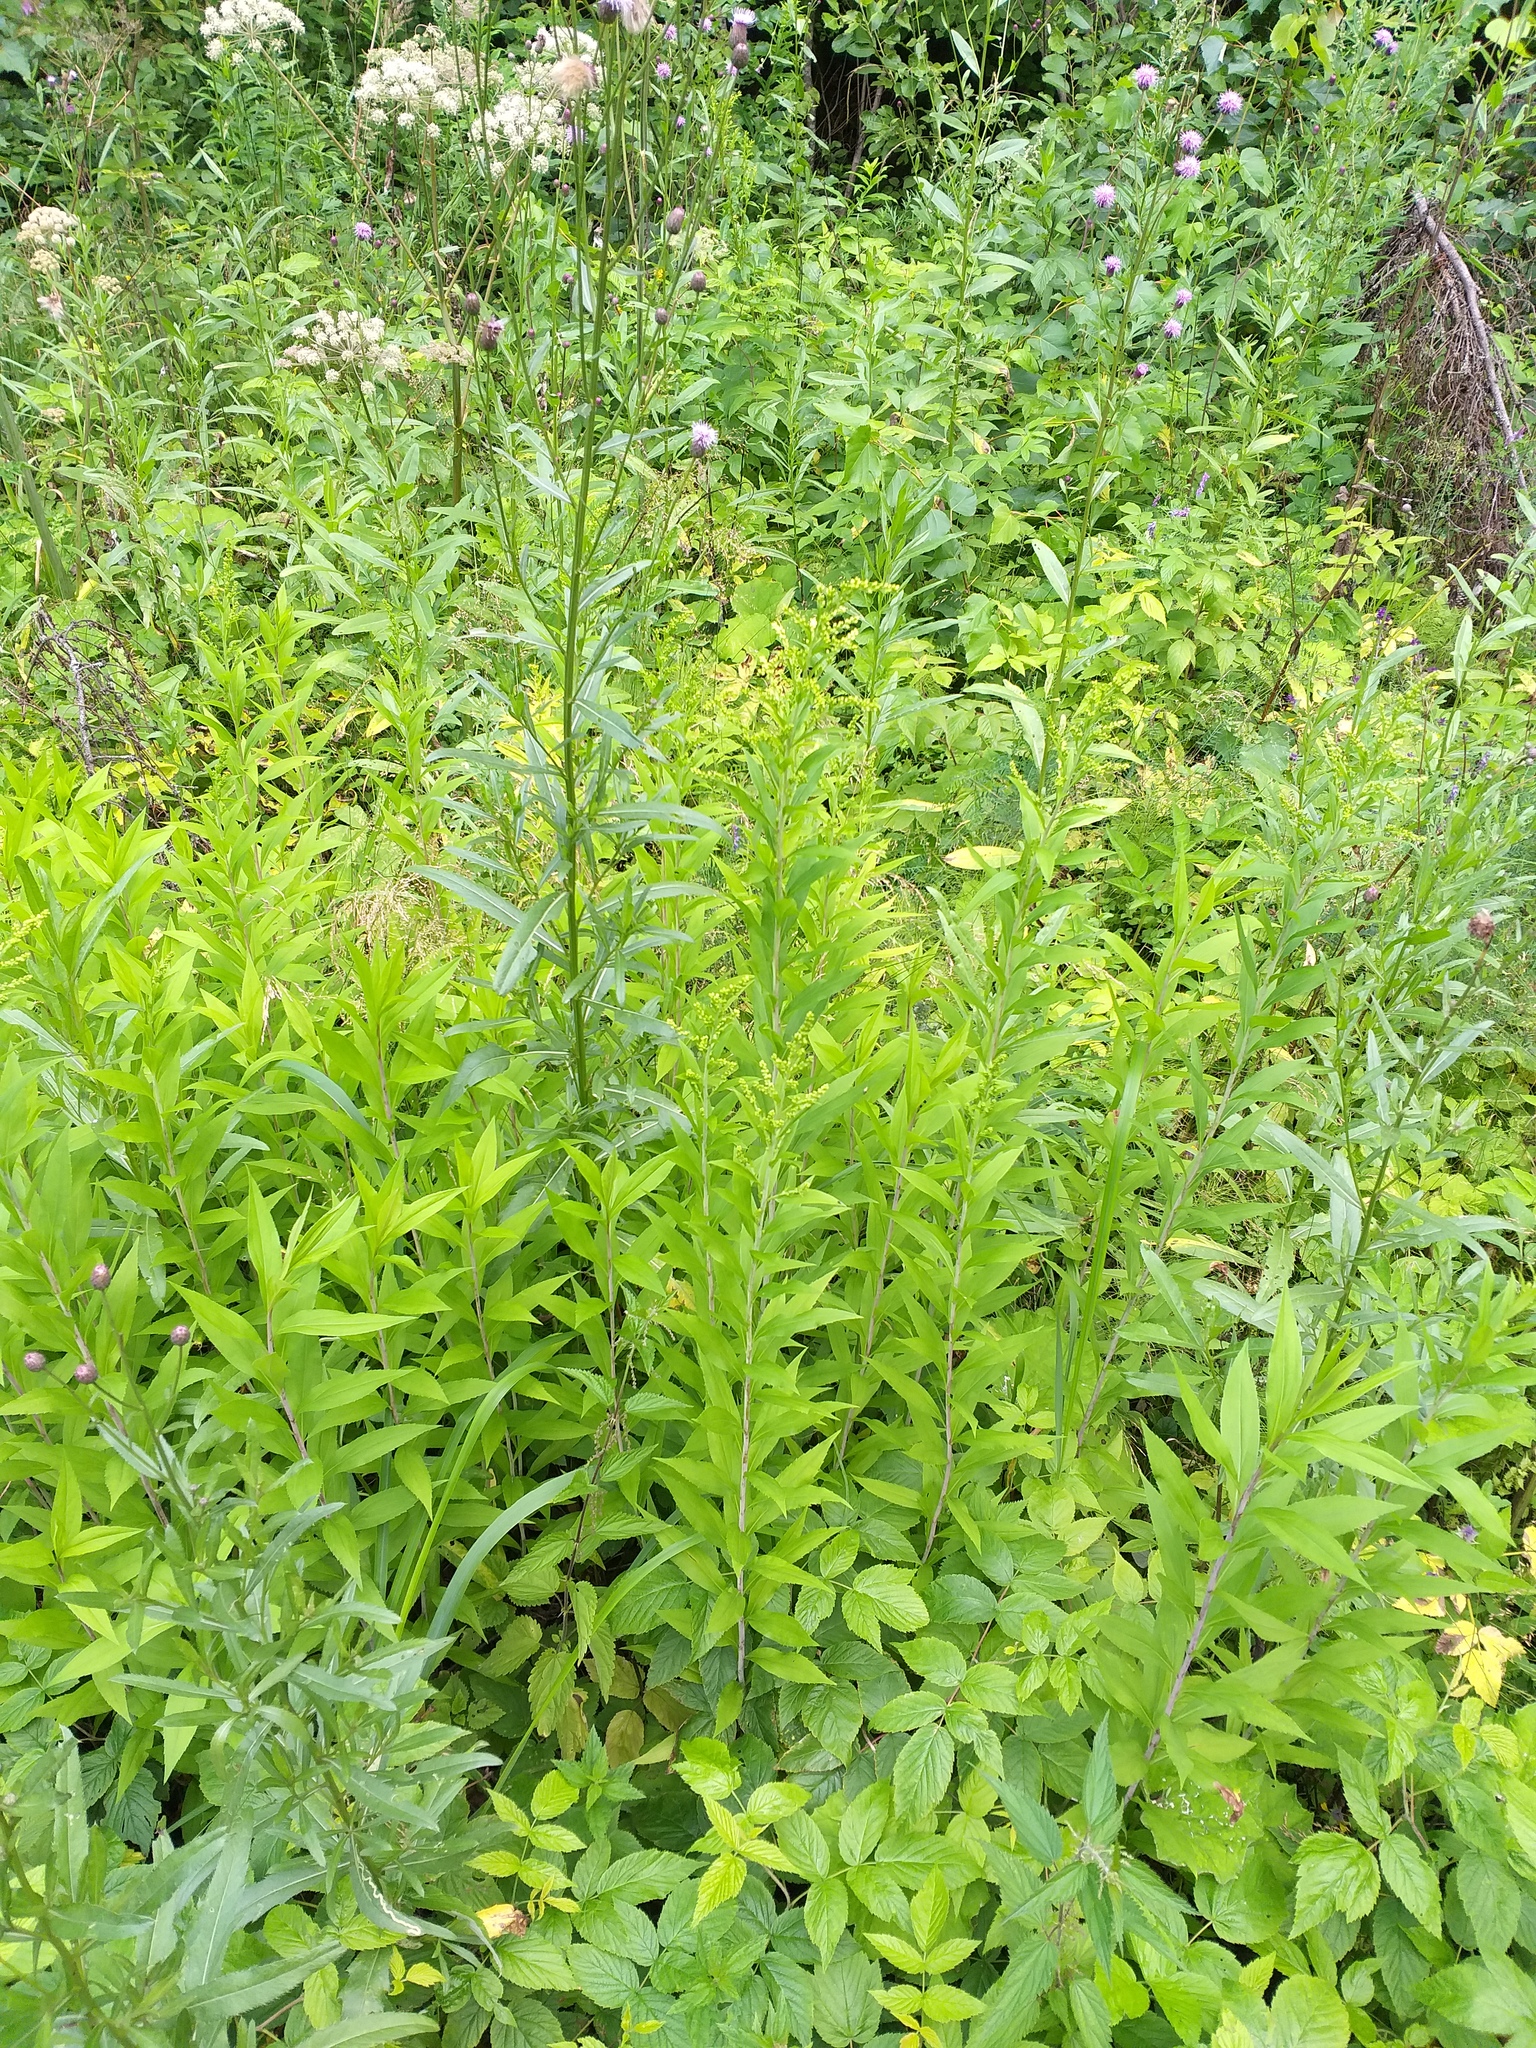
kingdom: Plantae
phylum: Tracheophyta
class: Magnoliopsida
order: Asterales
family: Asteraceae
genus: Solidago
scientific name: Solidago gigantea
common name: Giant goldenrod
